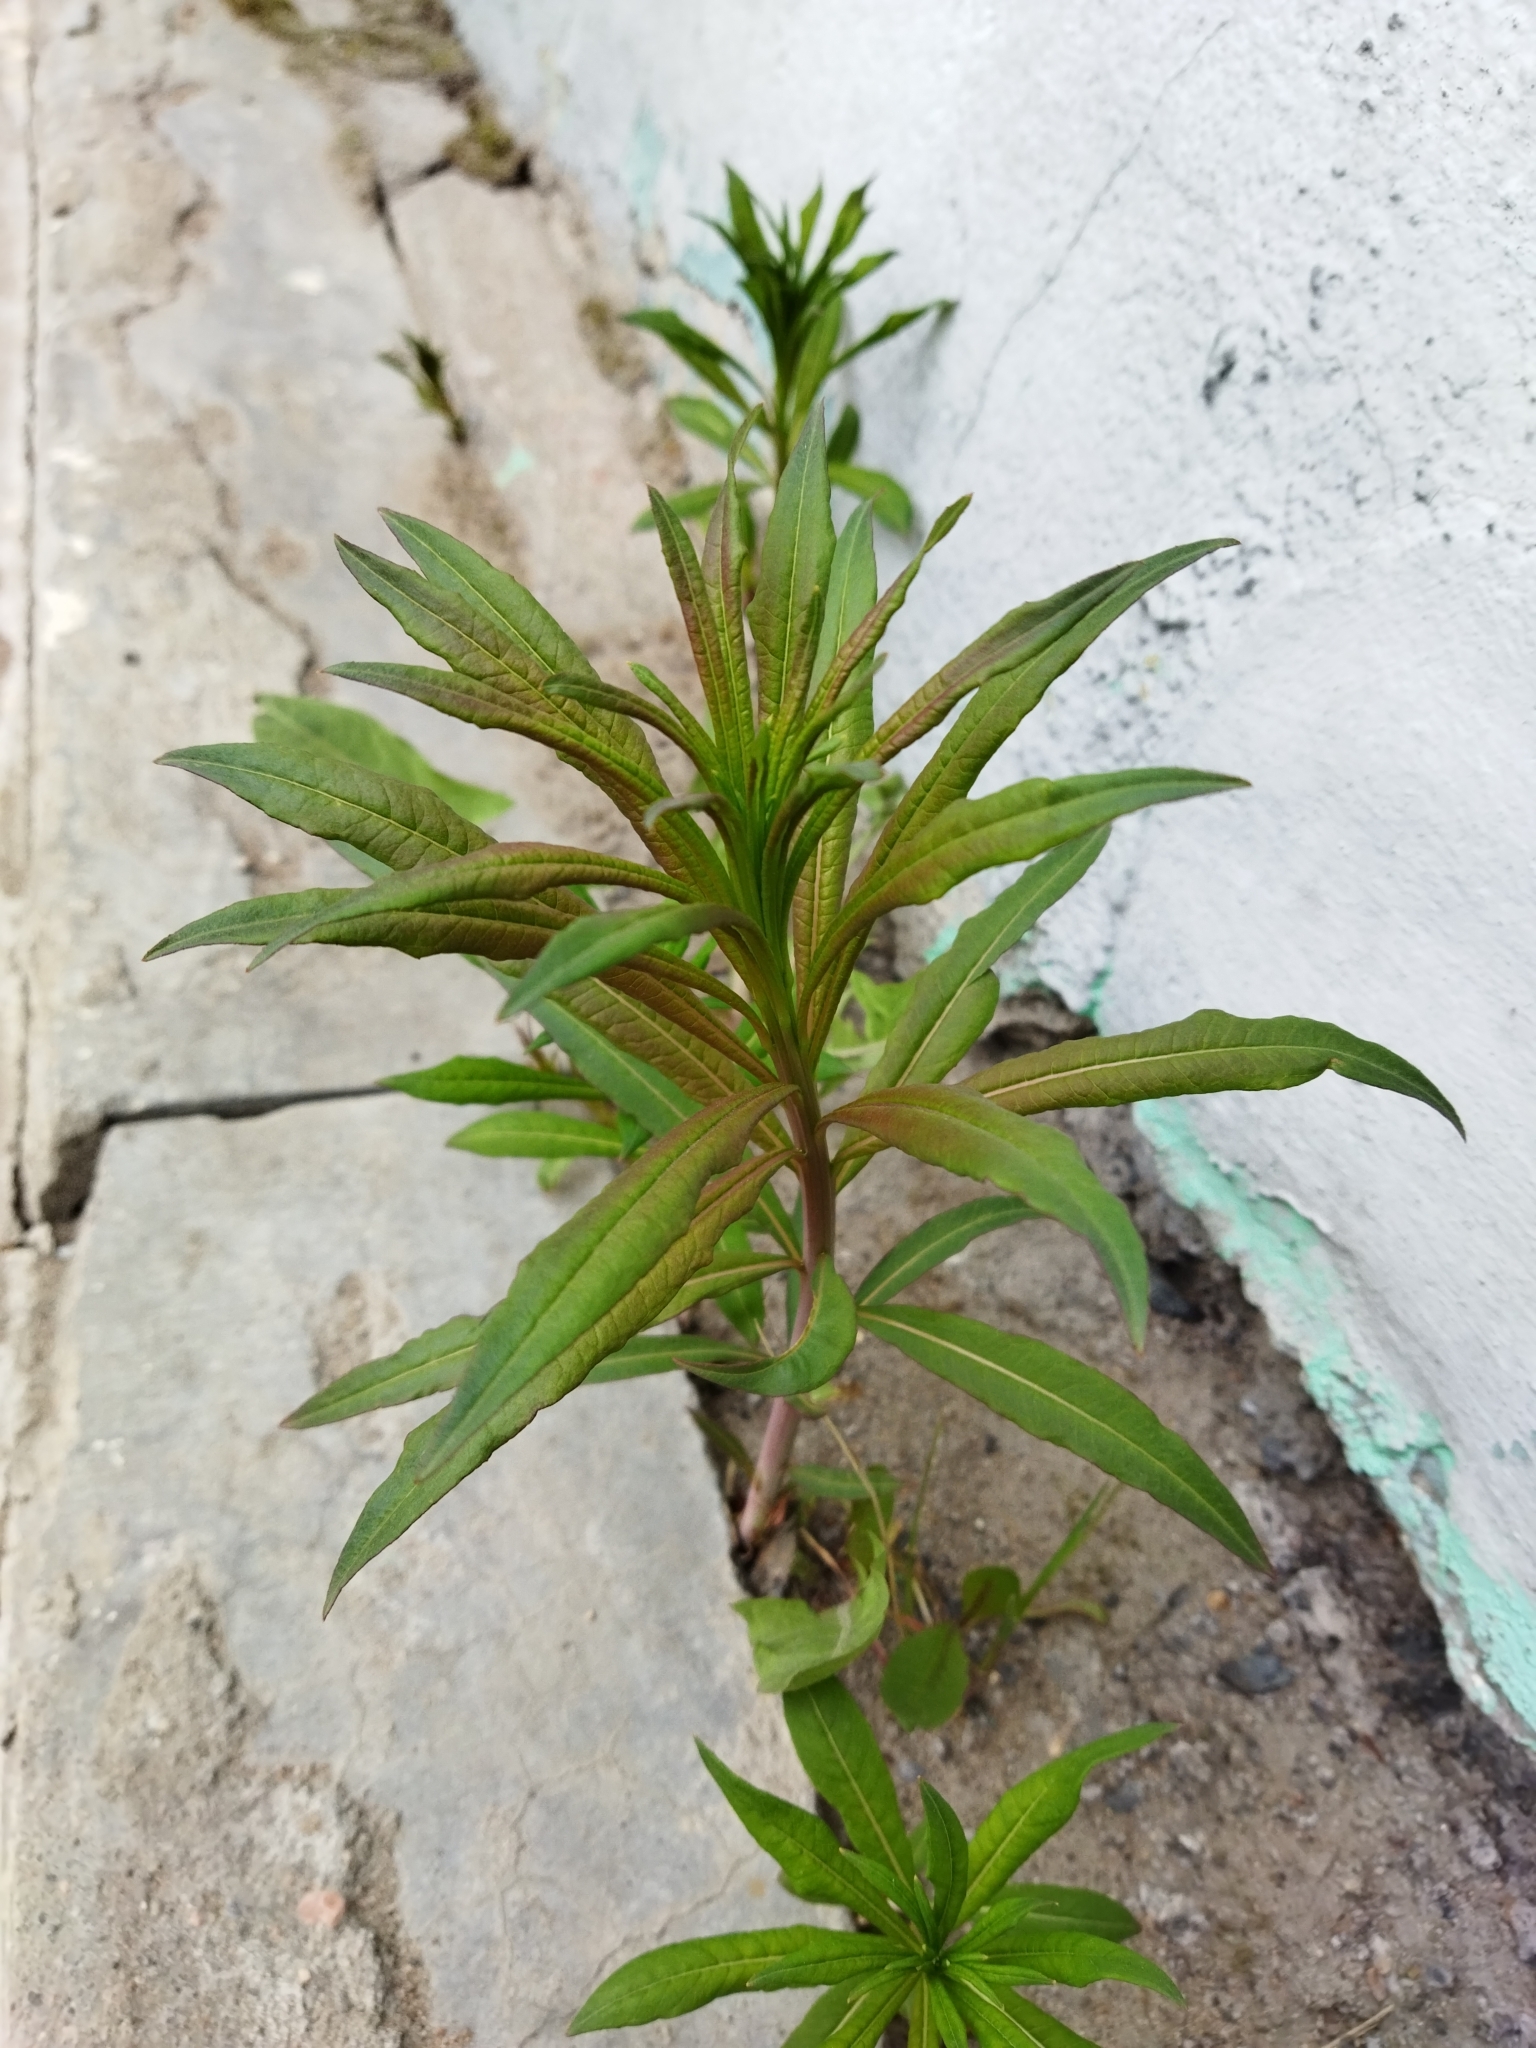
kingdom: Plantae
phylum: Tracheophyta
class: Magnoliopsida
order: Myrtales
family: Onagraceae
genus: Chamaenerion
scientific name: Chamaenerion angustifolium
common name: Fireweed
